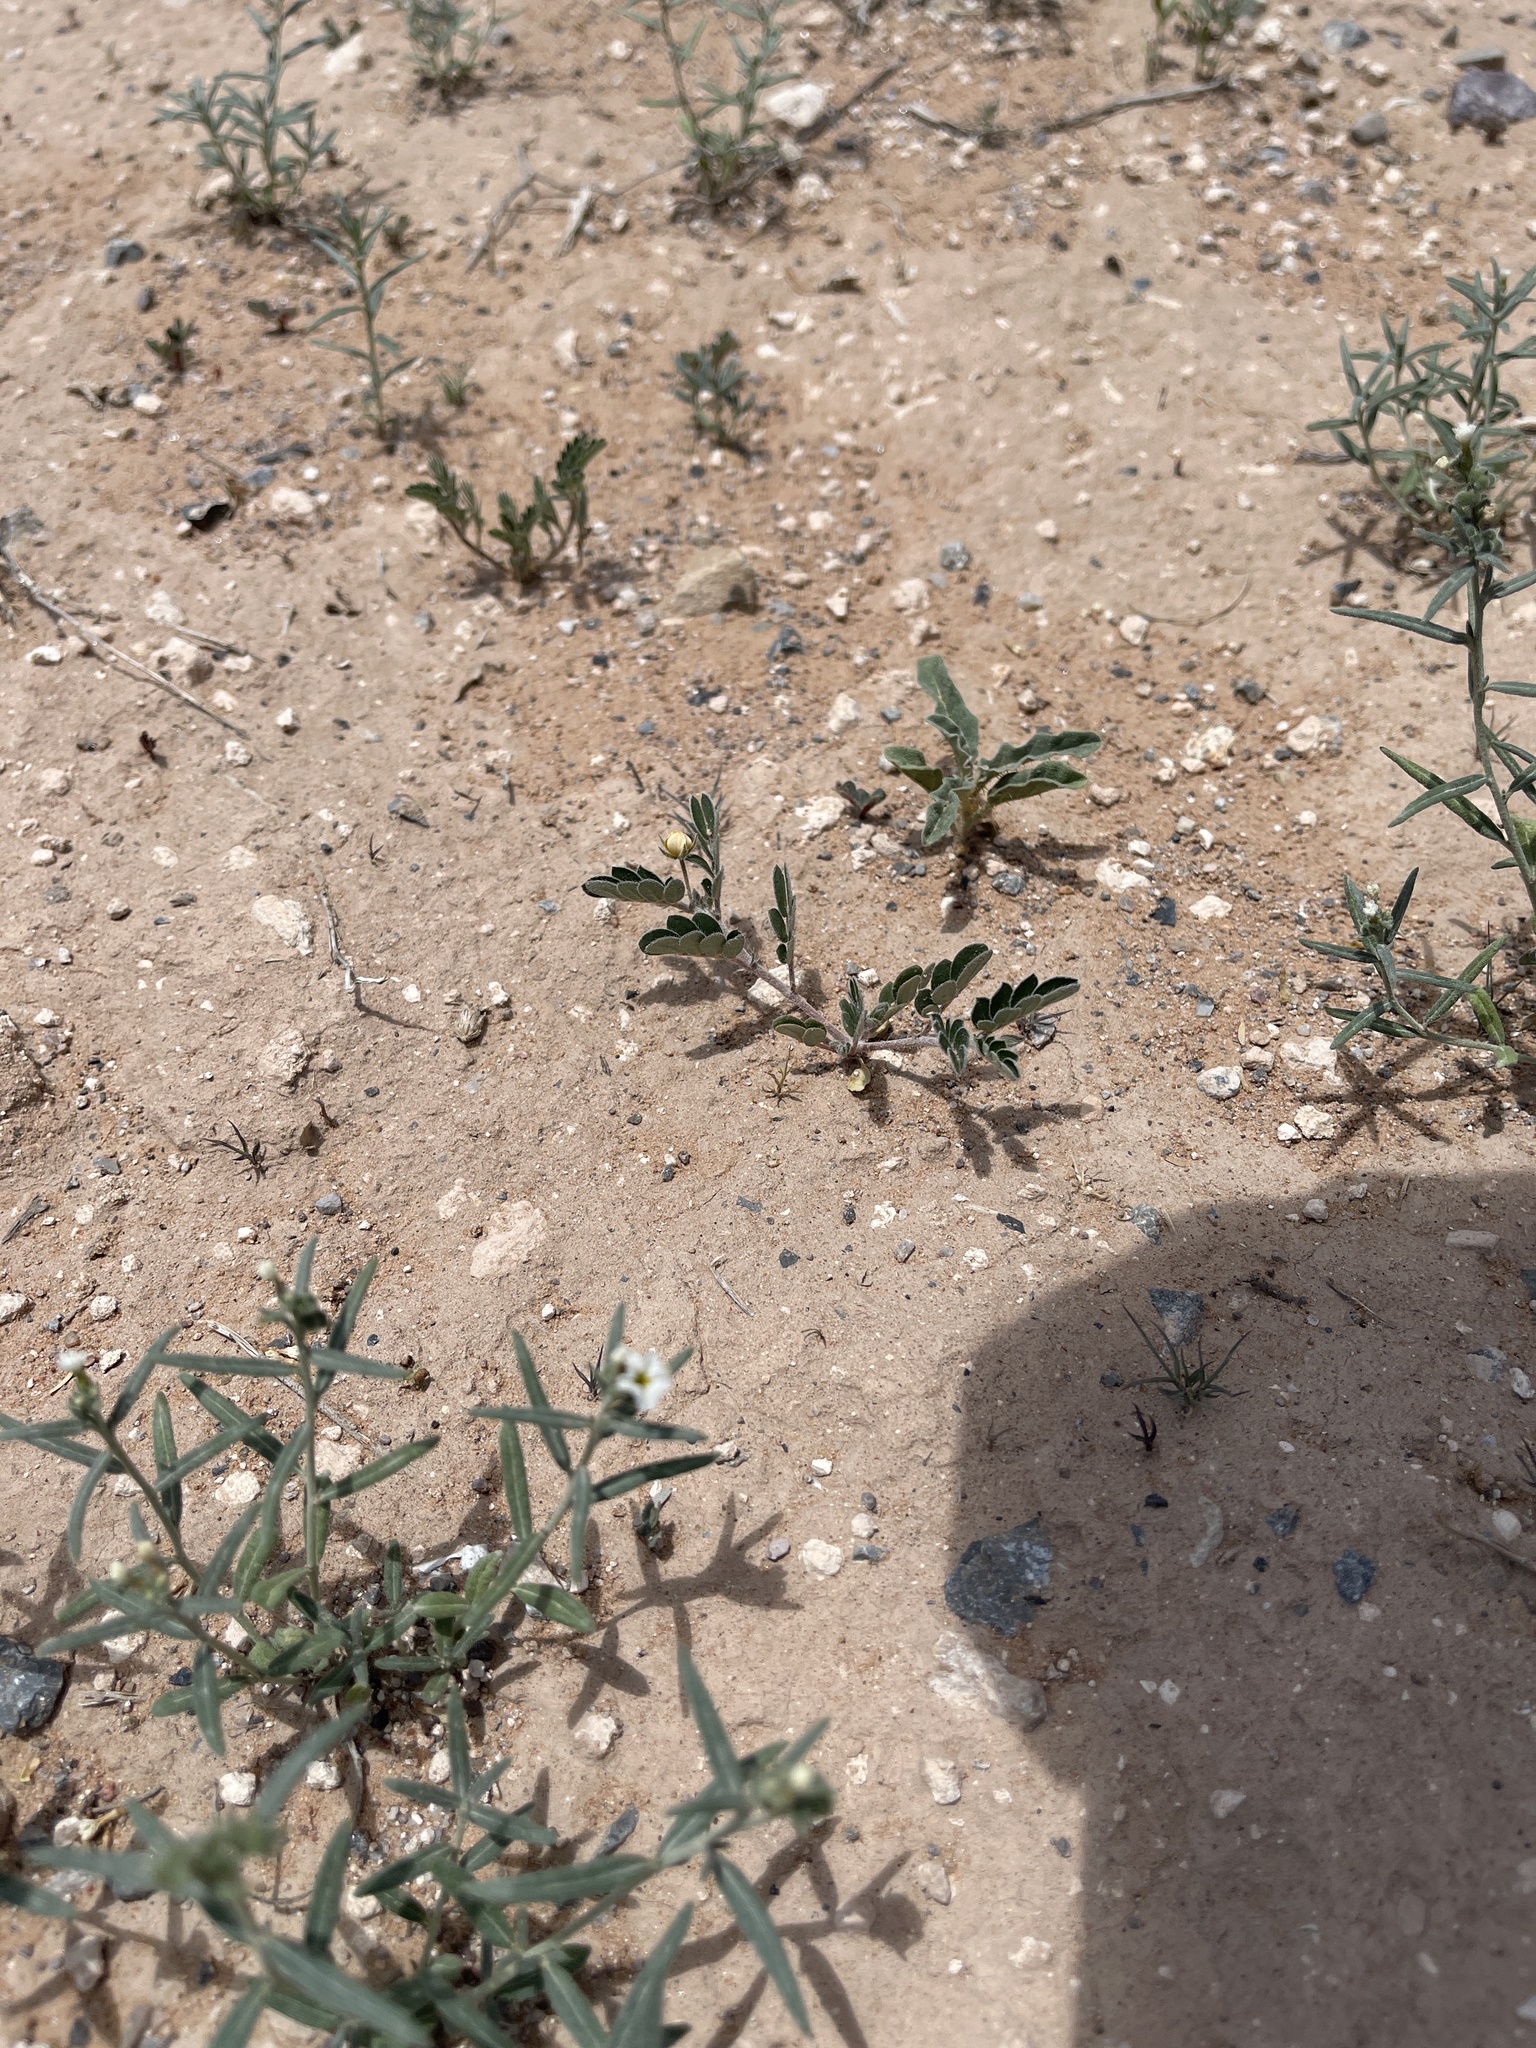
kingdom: Plantae
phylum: Tracheophyta
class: Magnoliopsida
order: Zygophyllales
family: Zygophyllaceae
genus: Kallstroemia
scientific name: Kallstroemia parviflora
